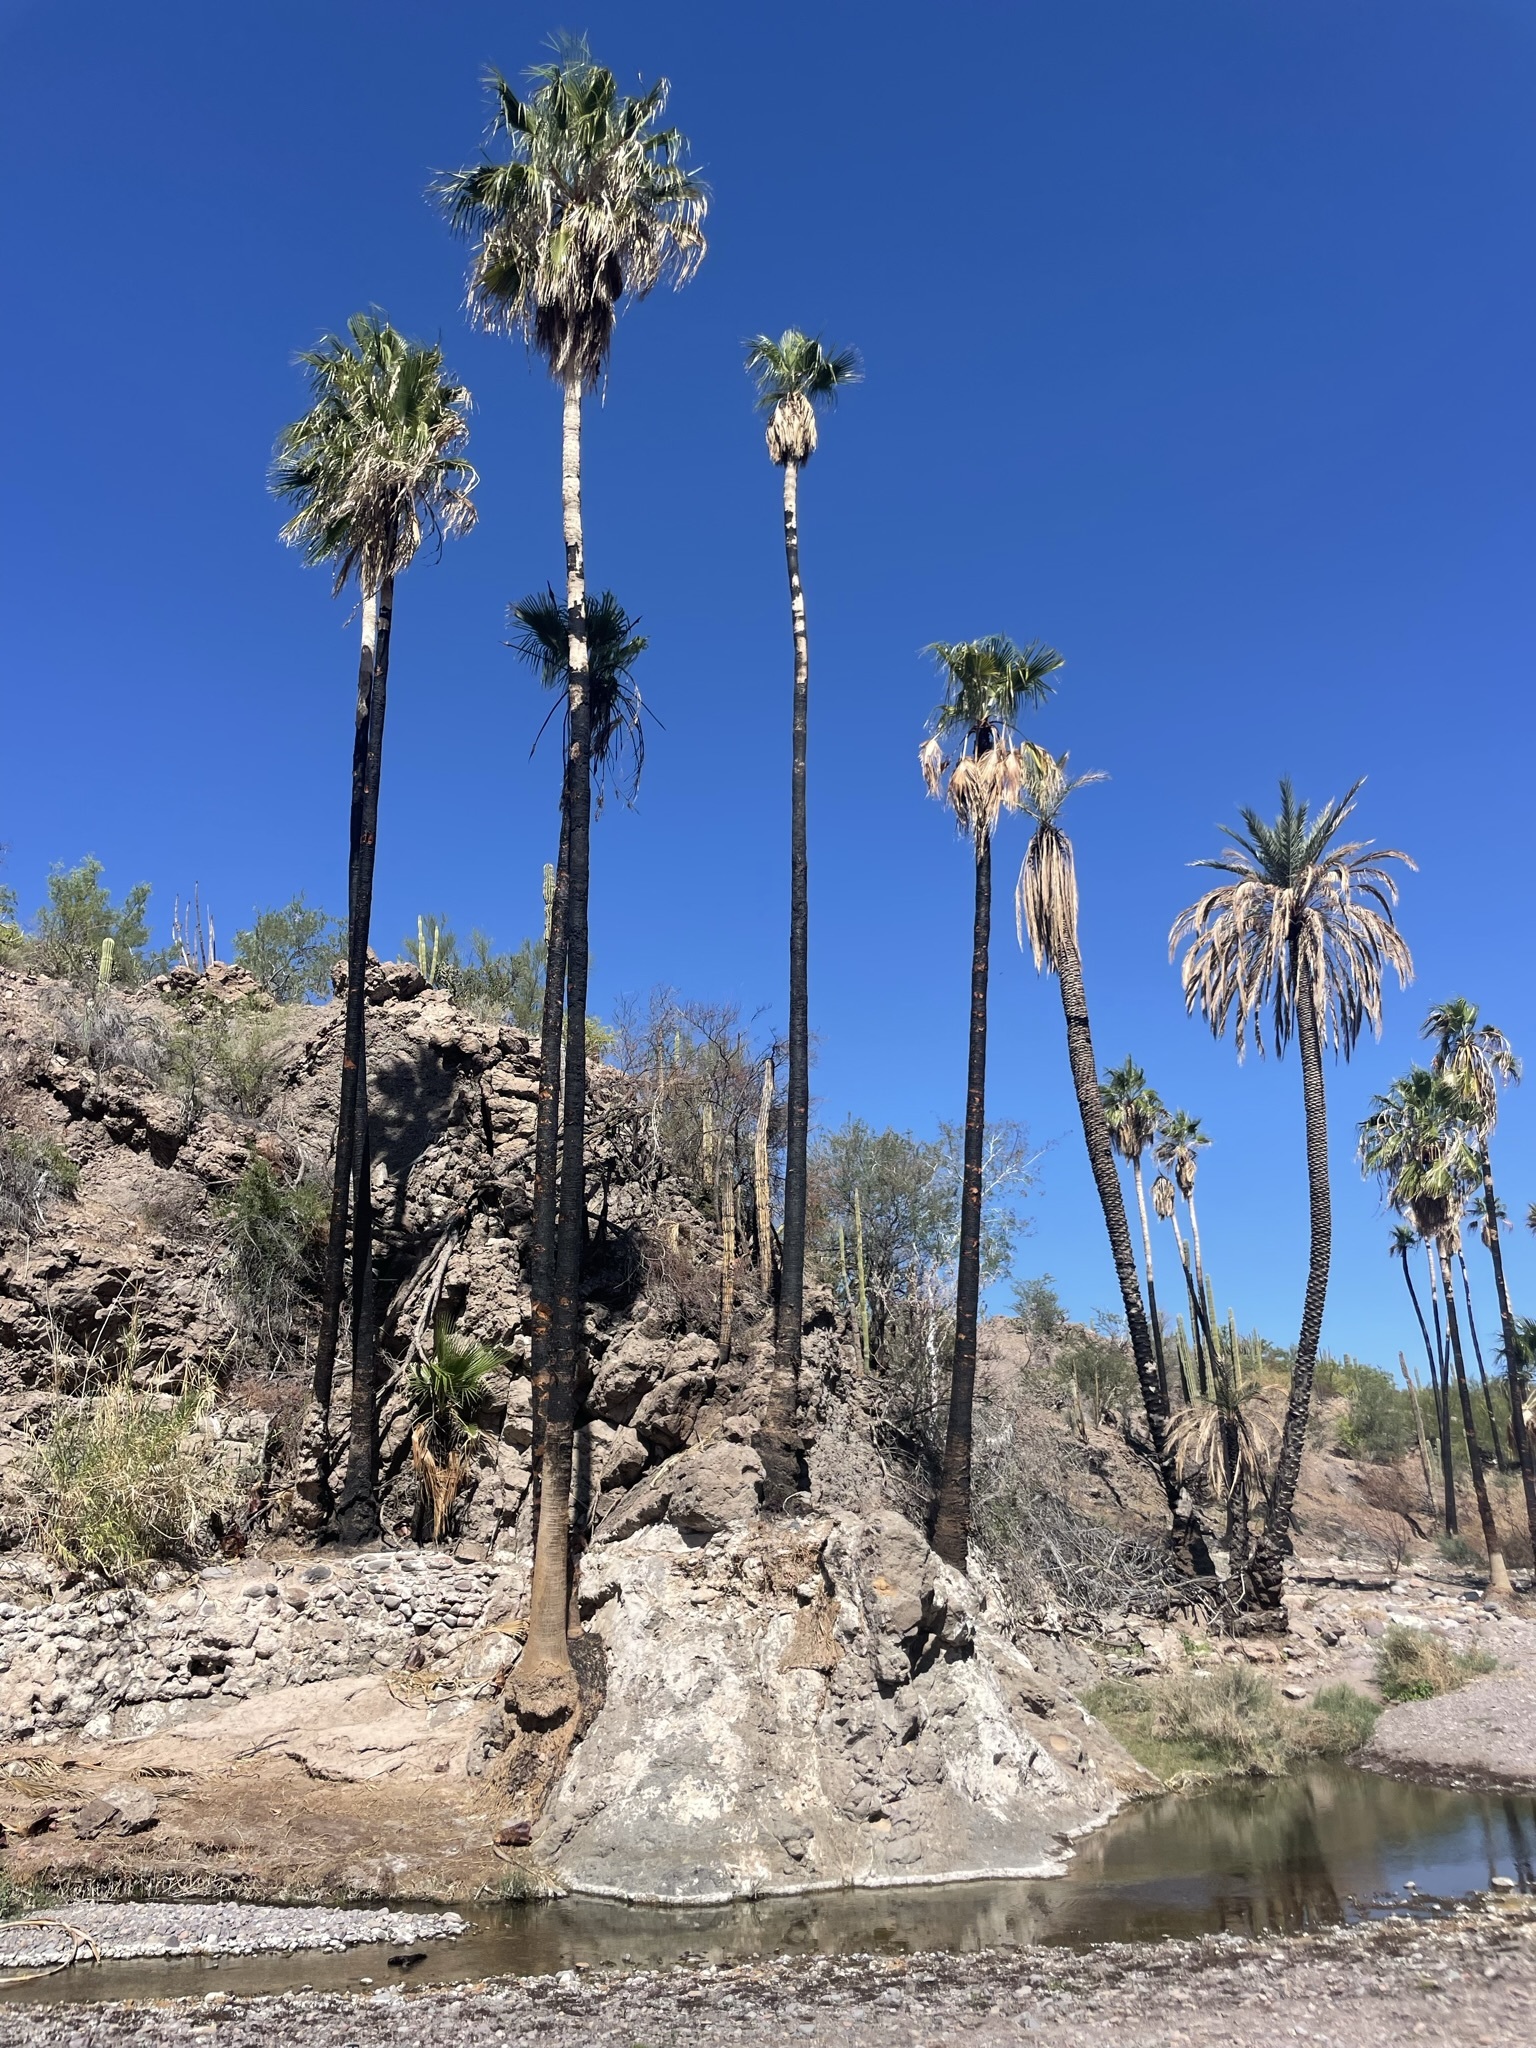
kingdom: Plantae
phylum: Tracheophyta
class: Liliopsida
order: Arecales
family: Arecaceae
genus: Washingtonia
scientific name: Washingtonia robusta
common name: Mexican fan palm
